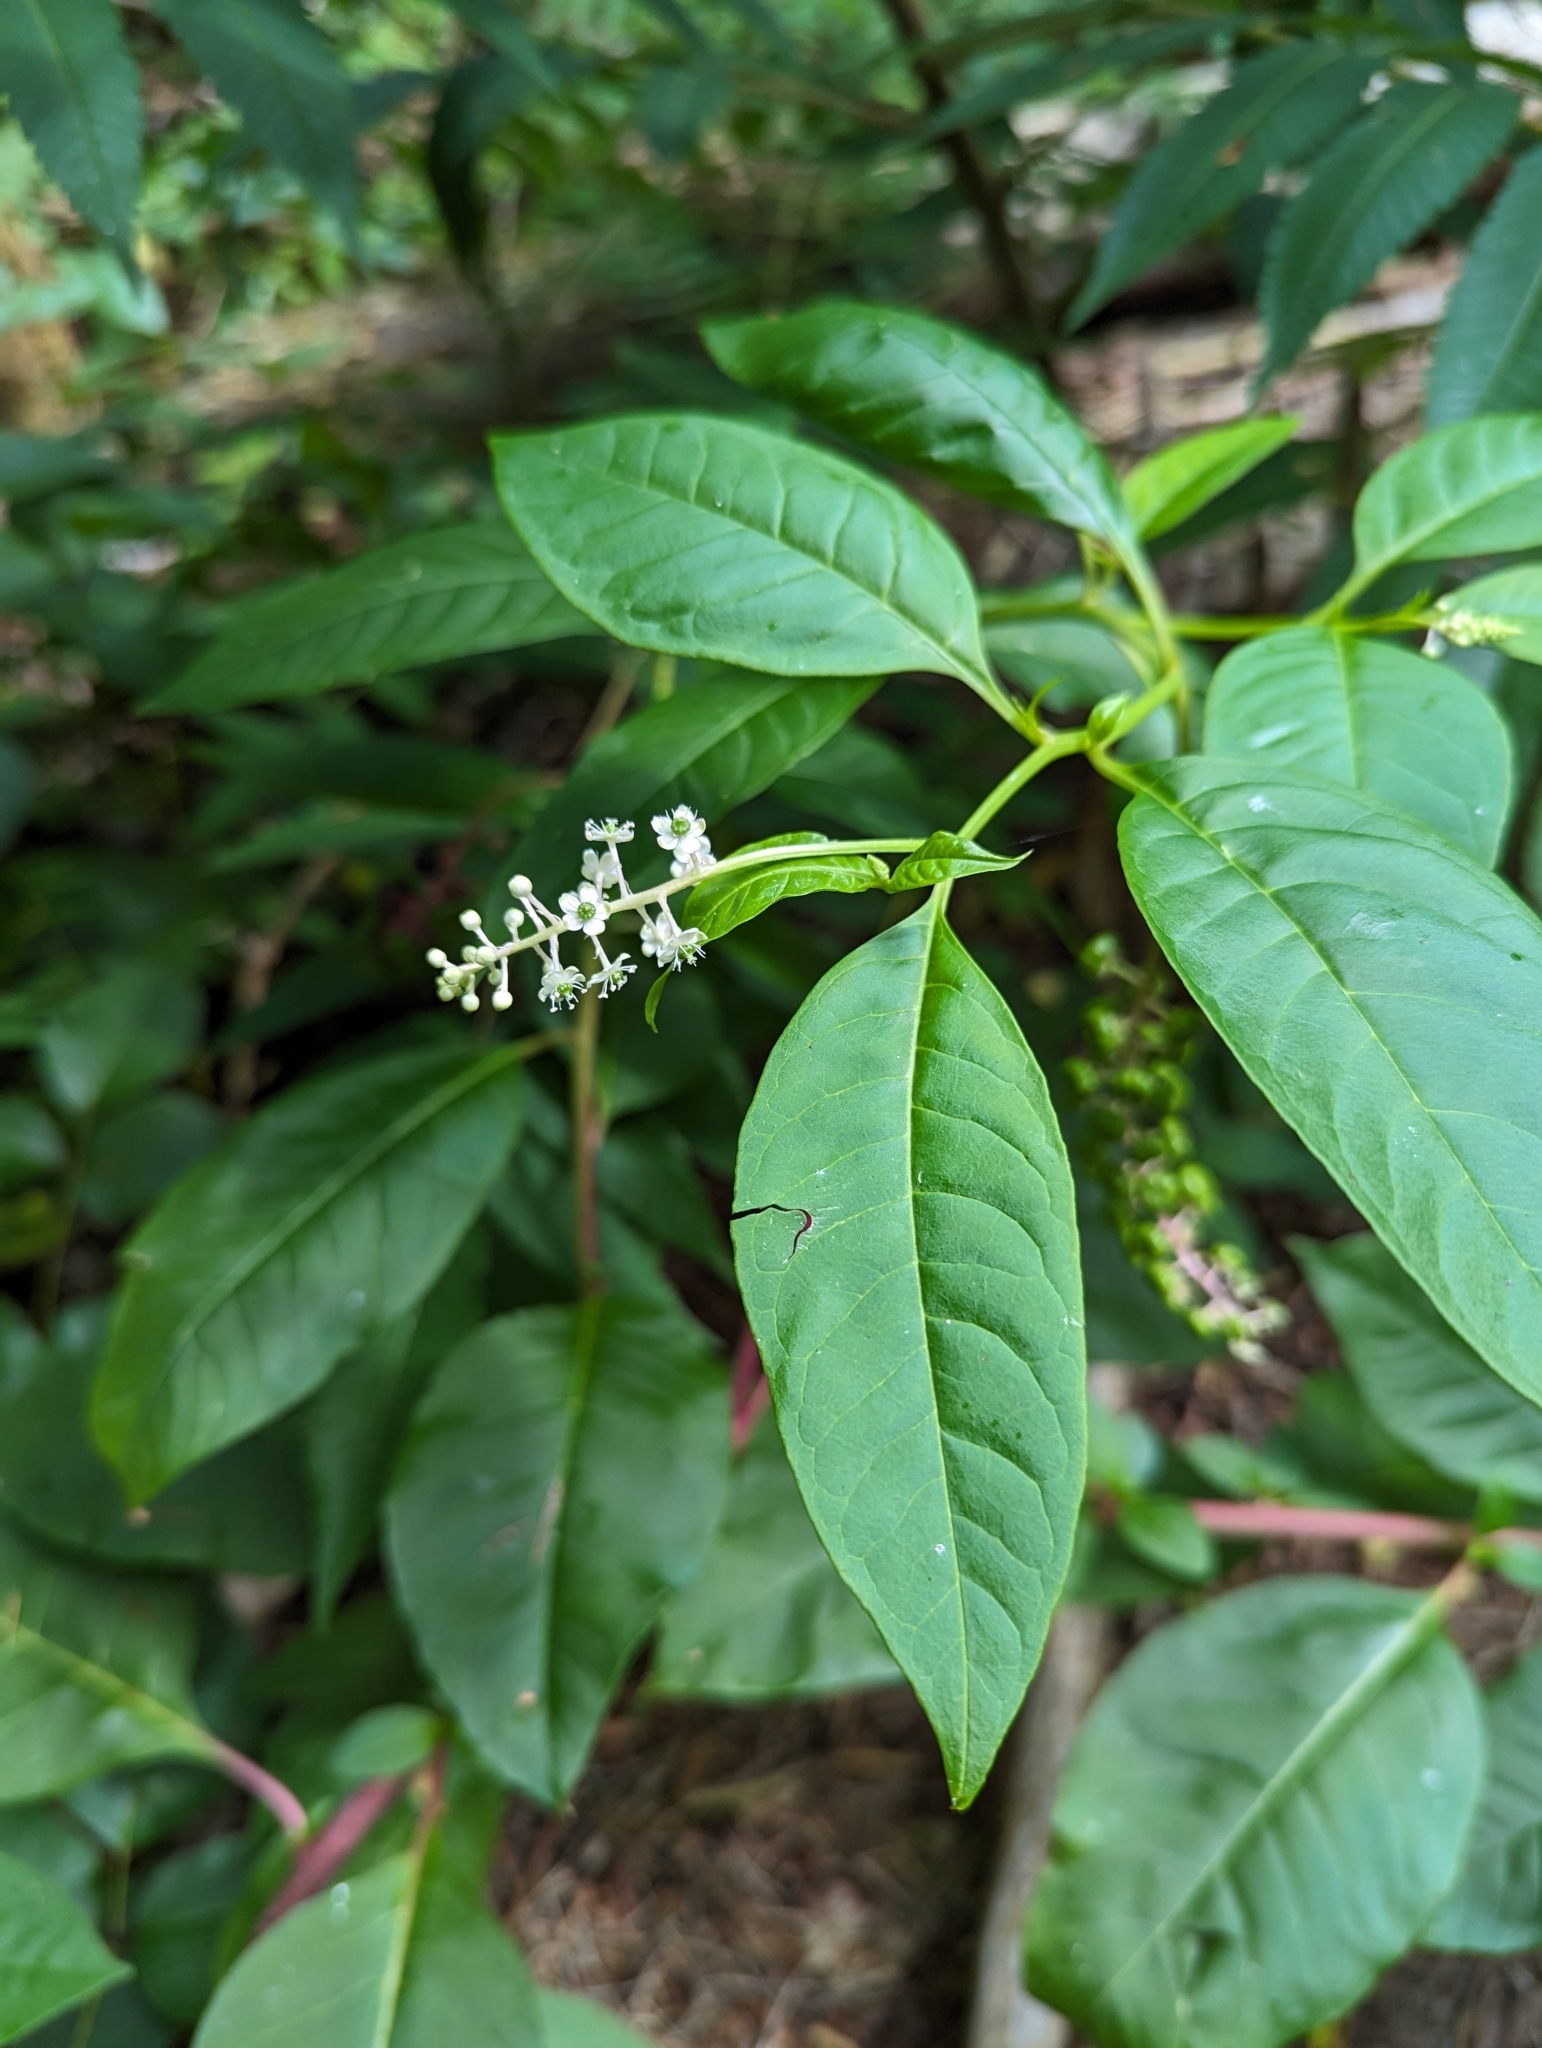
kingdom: Plantae
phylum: Tracheophyta
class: Magnoliopsida
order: Caryophyllales
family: Phytolaccaceae
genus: Phytolacca
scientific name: Phytolacca americana
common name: American pokeweed
